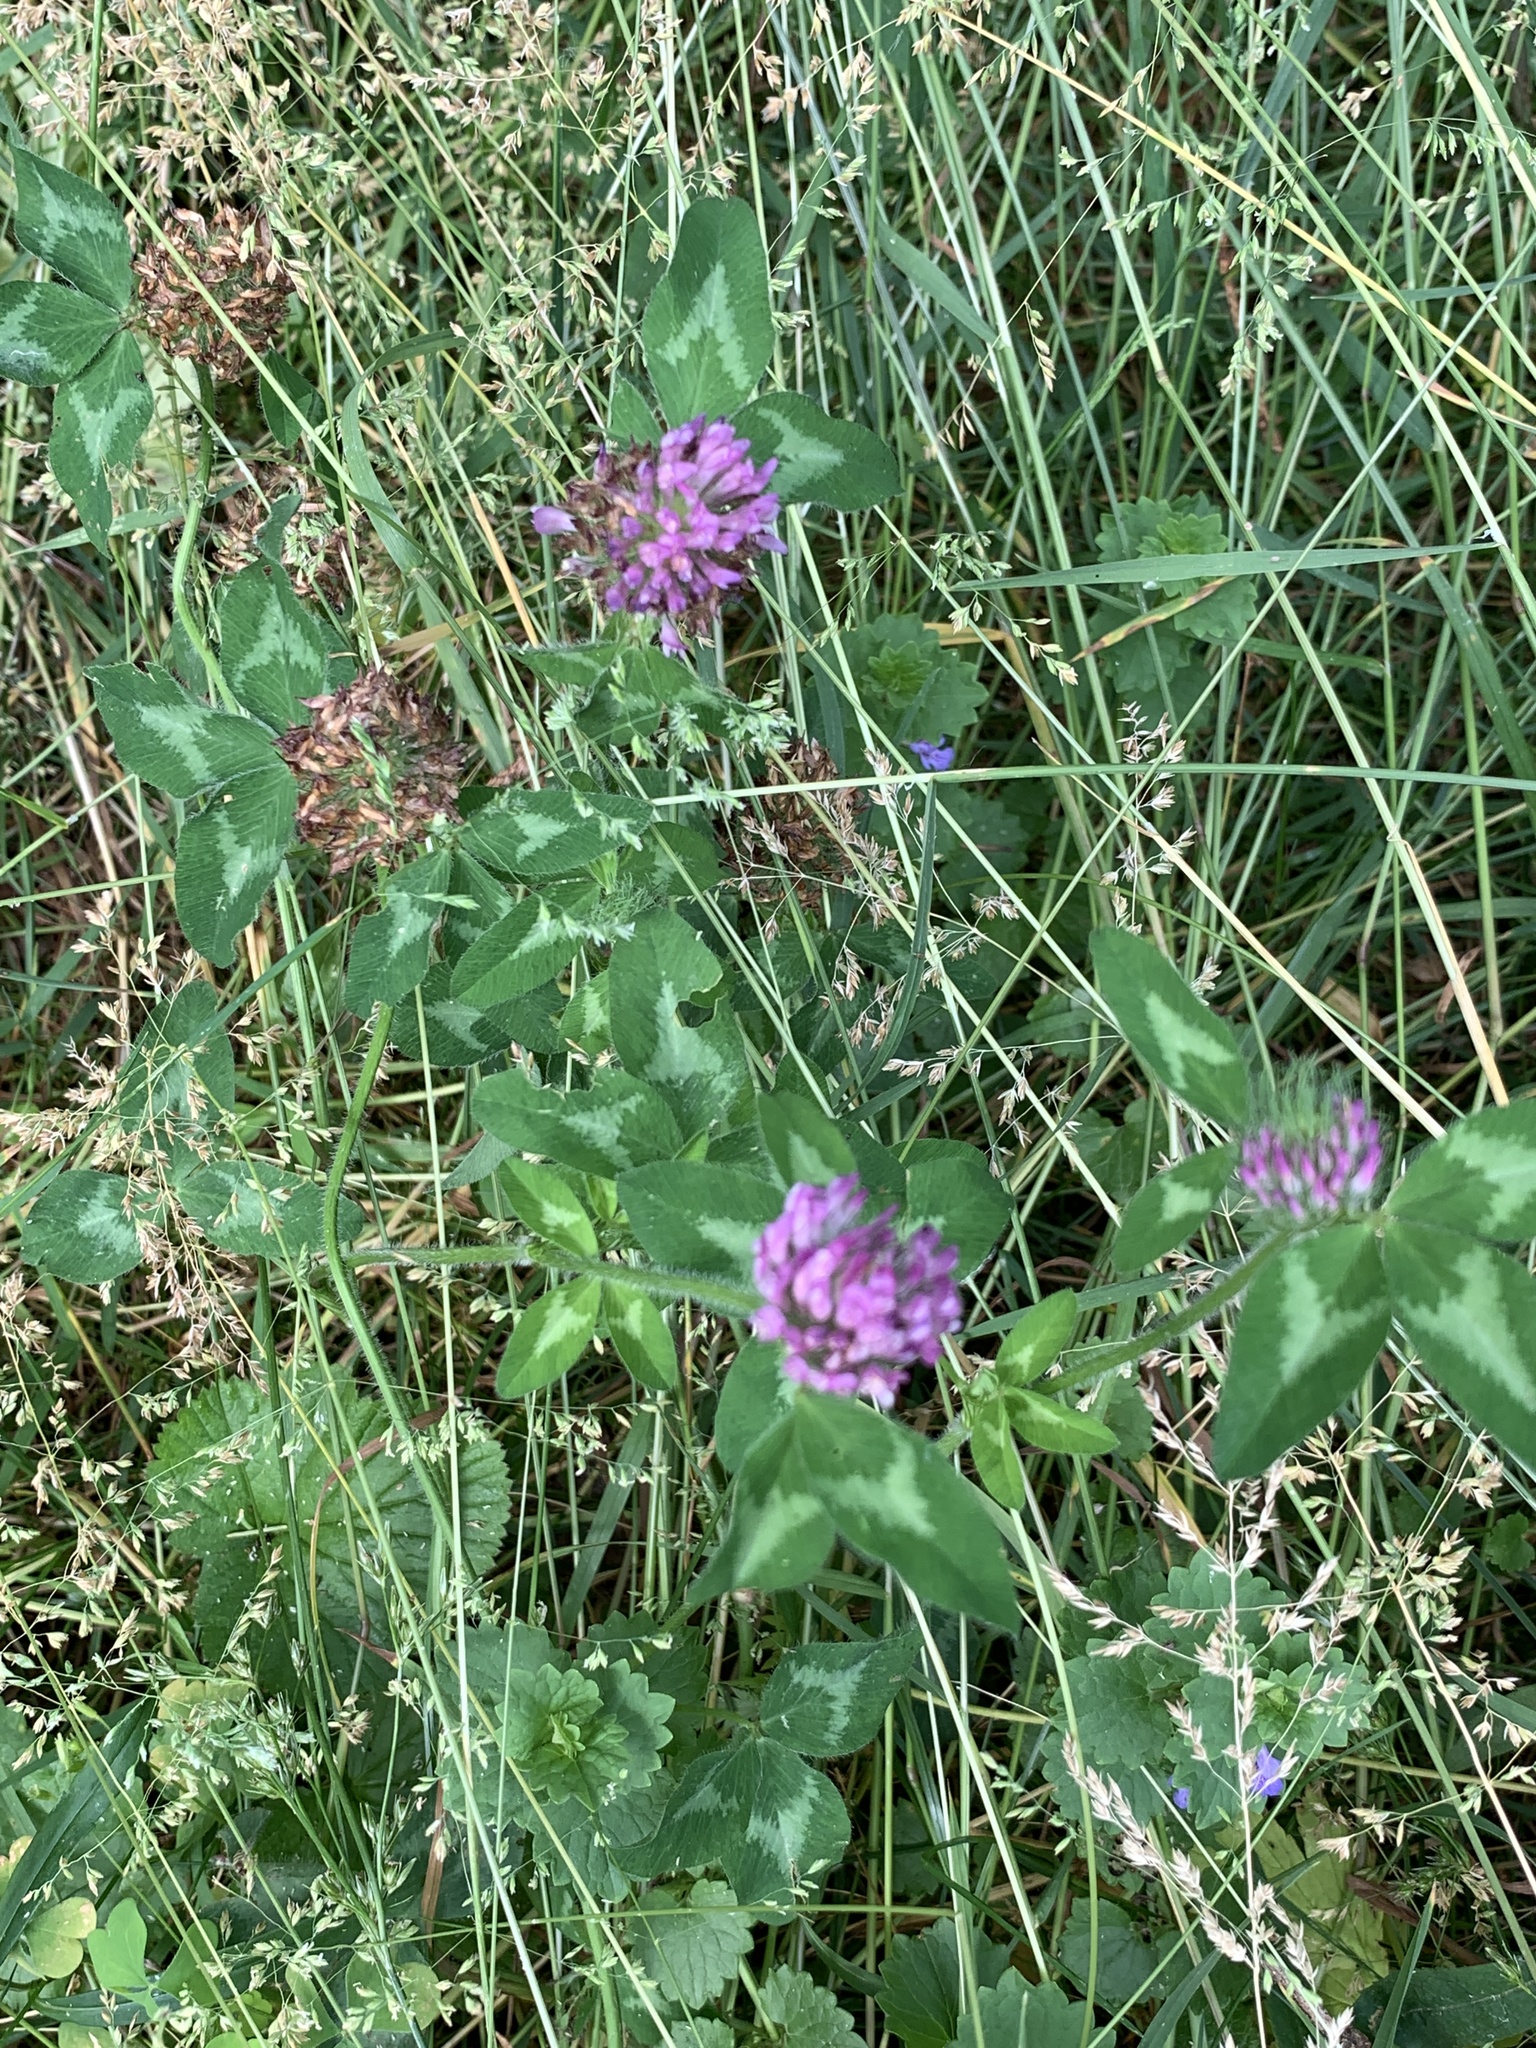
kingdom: Plantae
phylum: Tracheophyta
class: Magnoliopsida
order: Fabales
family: Fabaceae
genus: Trifolium
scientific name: Trifolium pratense
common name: Red clover
